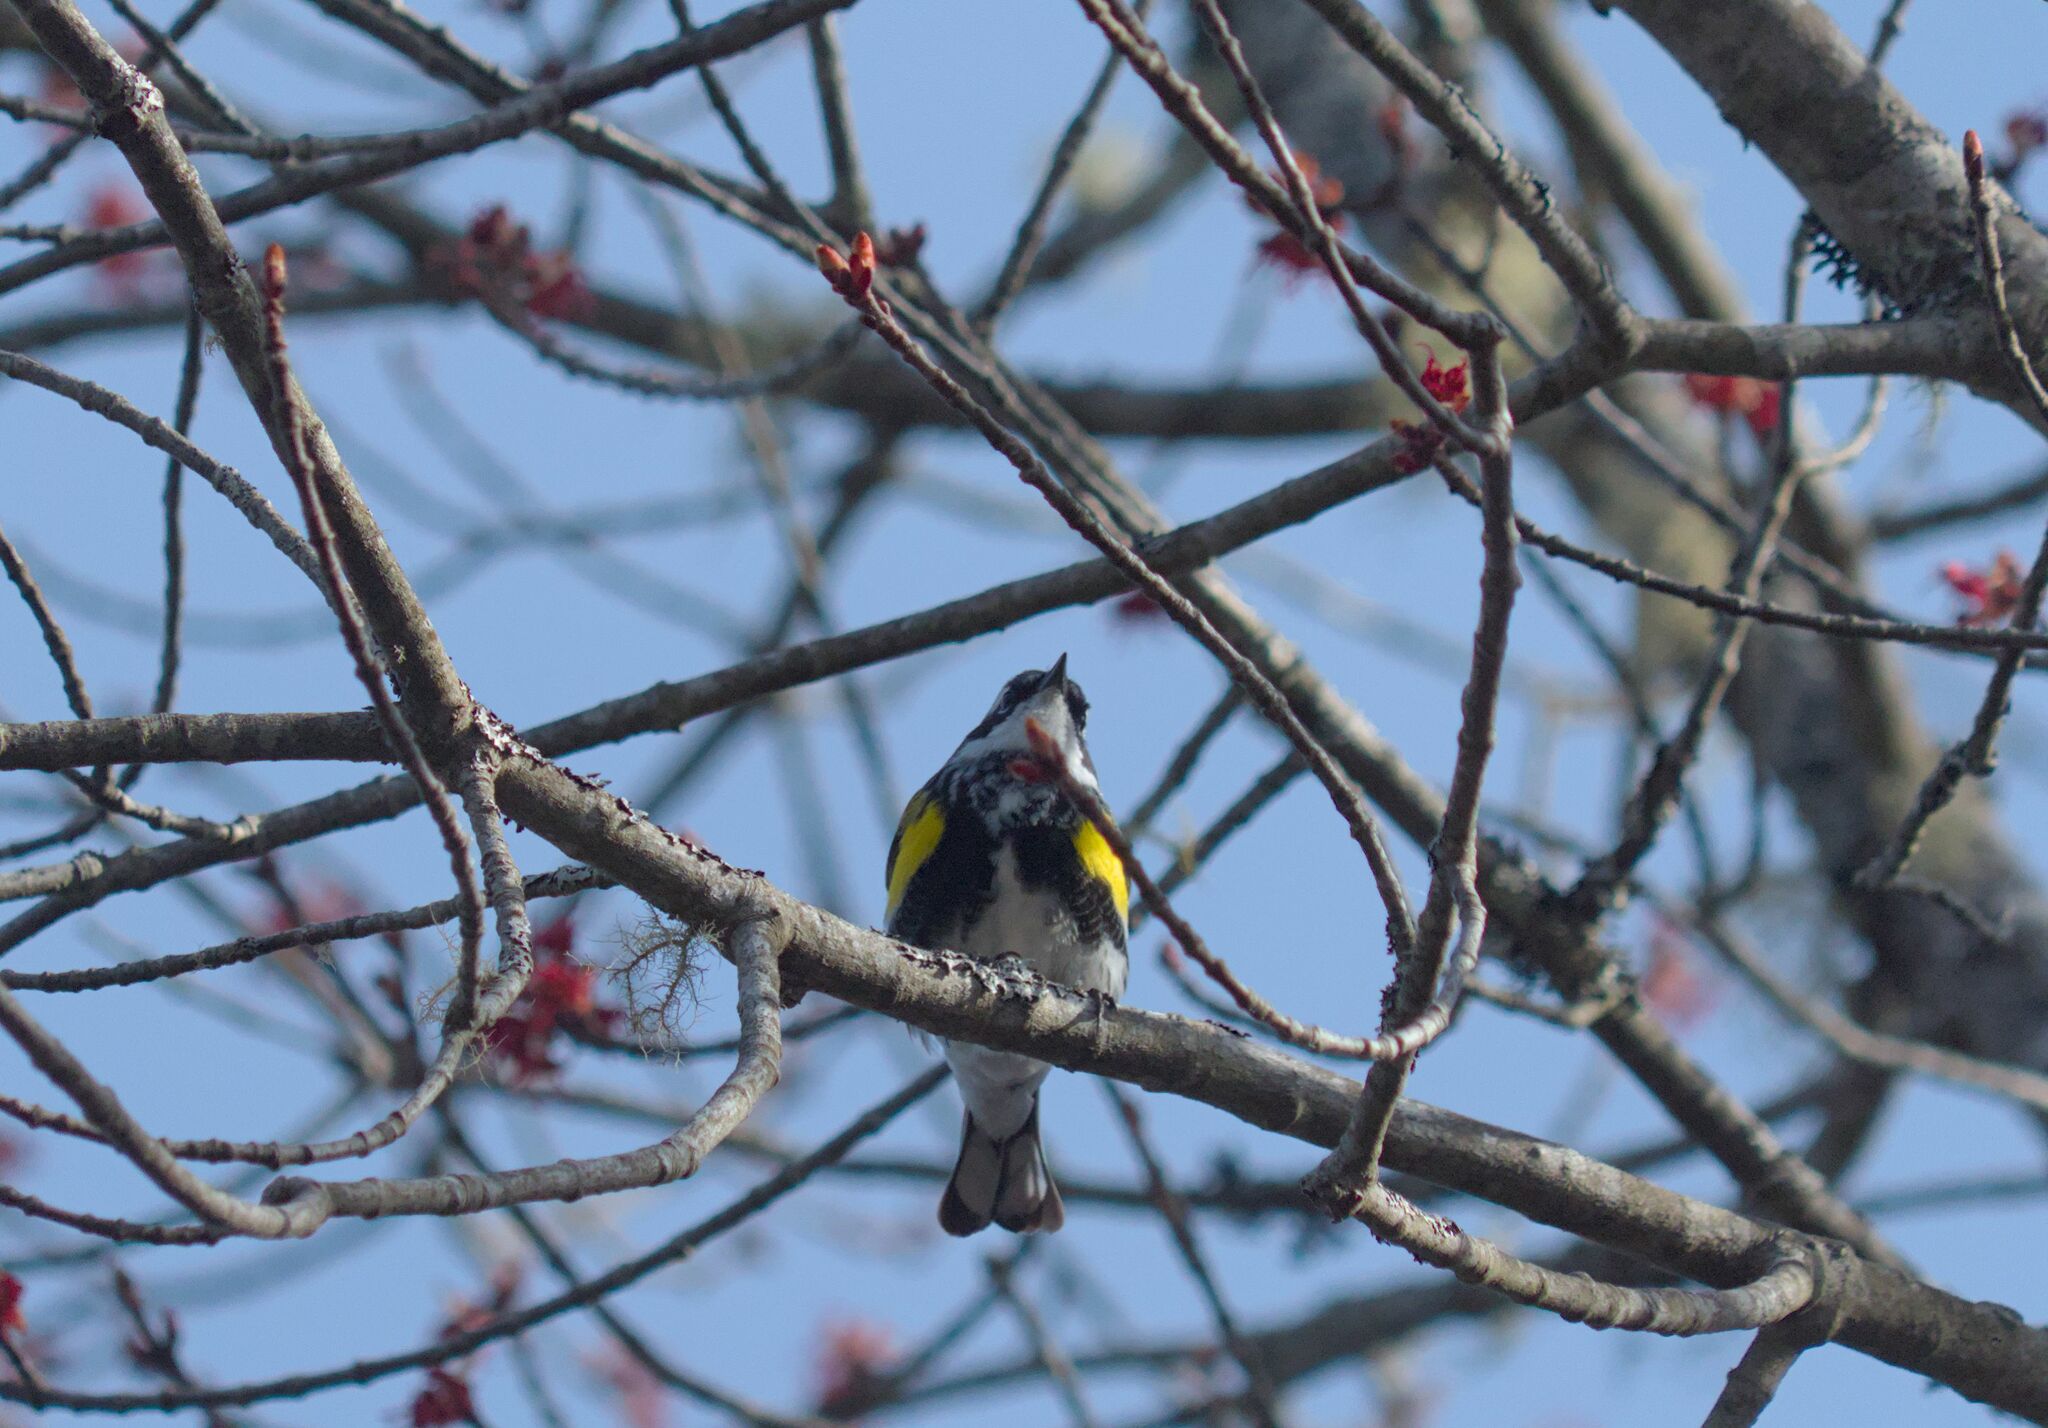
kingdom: Animalia
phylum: Chordata
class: Aves
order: Passeriformes
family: Parulidae
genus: Setophaga
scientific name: Setophaga coronata
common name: Myrtle warbler
